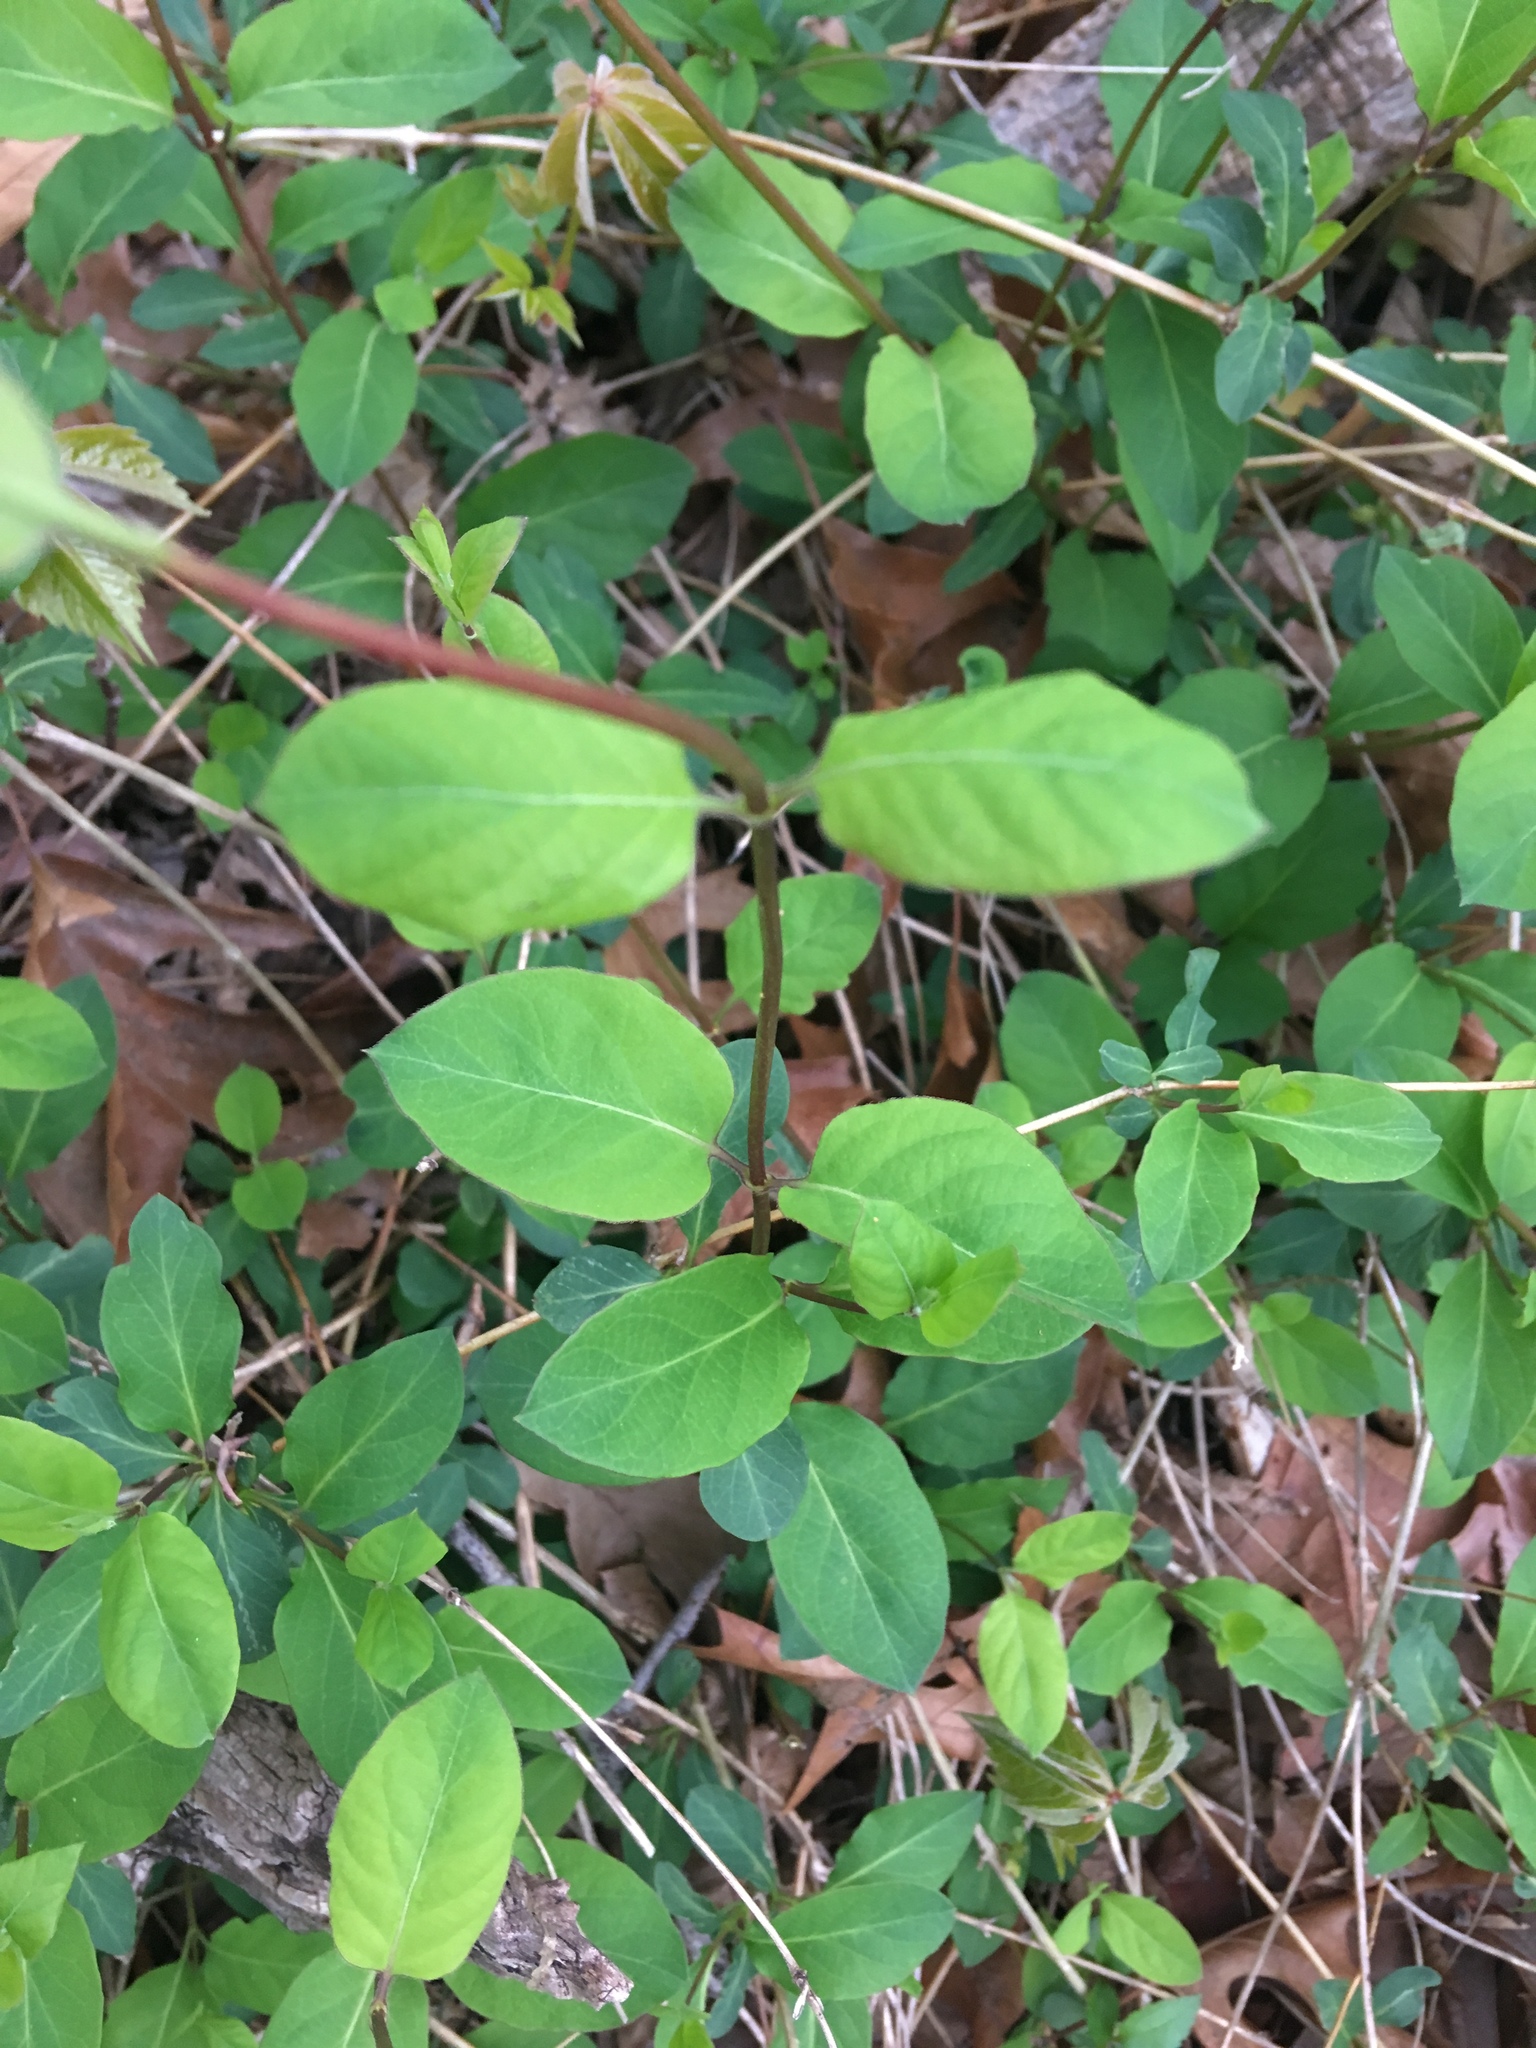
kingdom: Plantae
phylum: Tracheophyta
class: Magnoliopsida
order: Dipsacales
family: Caprifoliaceae
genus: Lonicera
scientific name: Lonicera japonica
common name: Japanese honeysuckle
